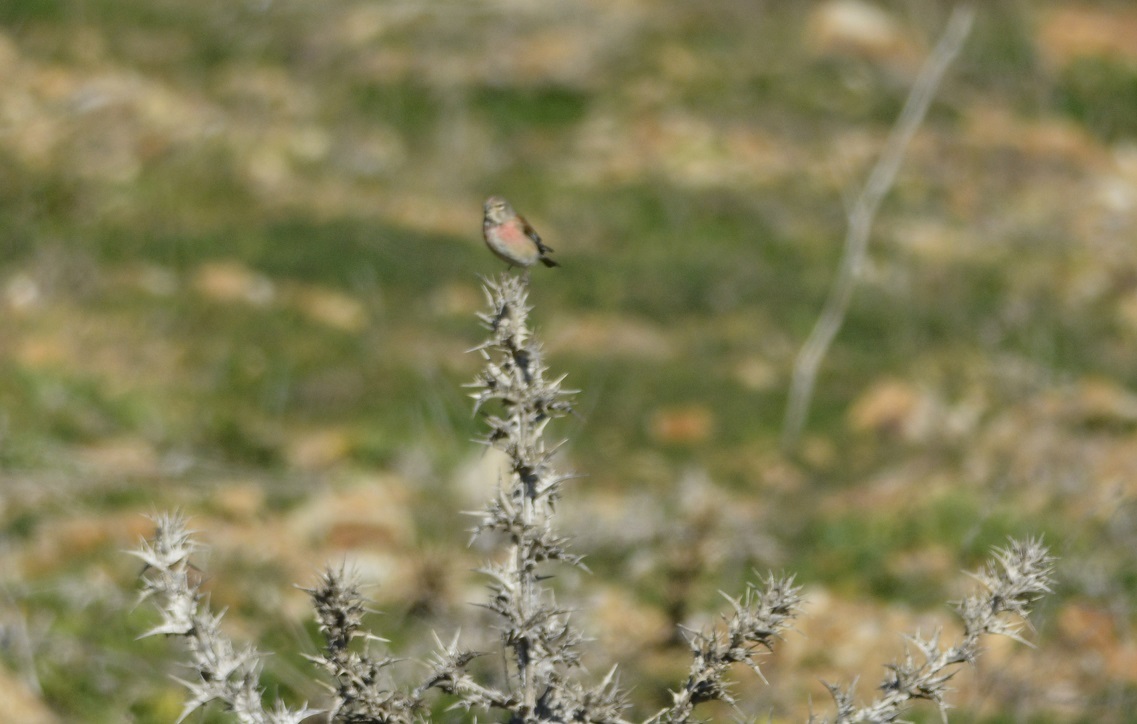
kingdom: Animalia
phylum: Chordata
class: Aves
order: Passeriformes
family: Fringillidae
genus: Linaria
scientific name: Linaria cannabina
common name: Common linnet
